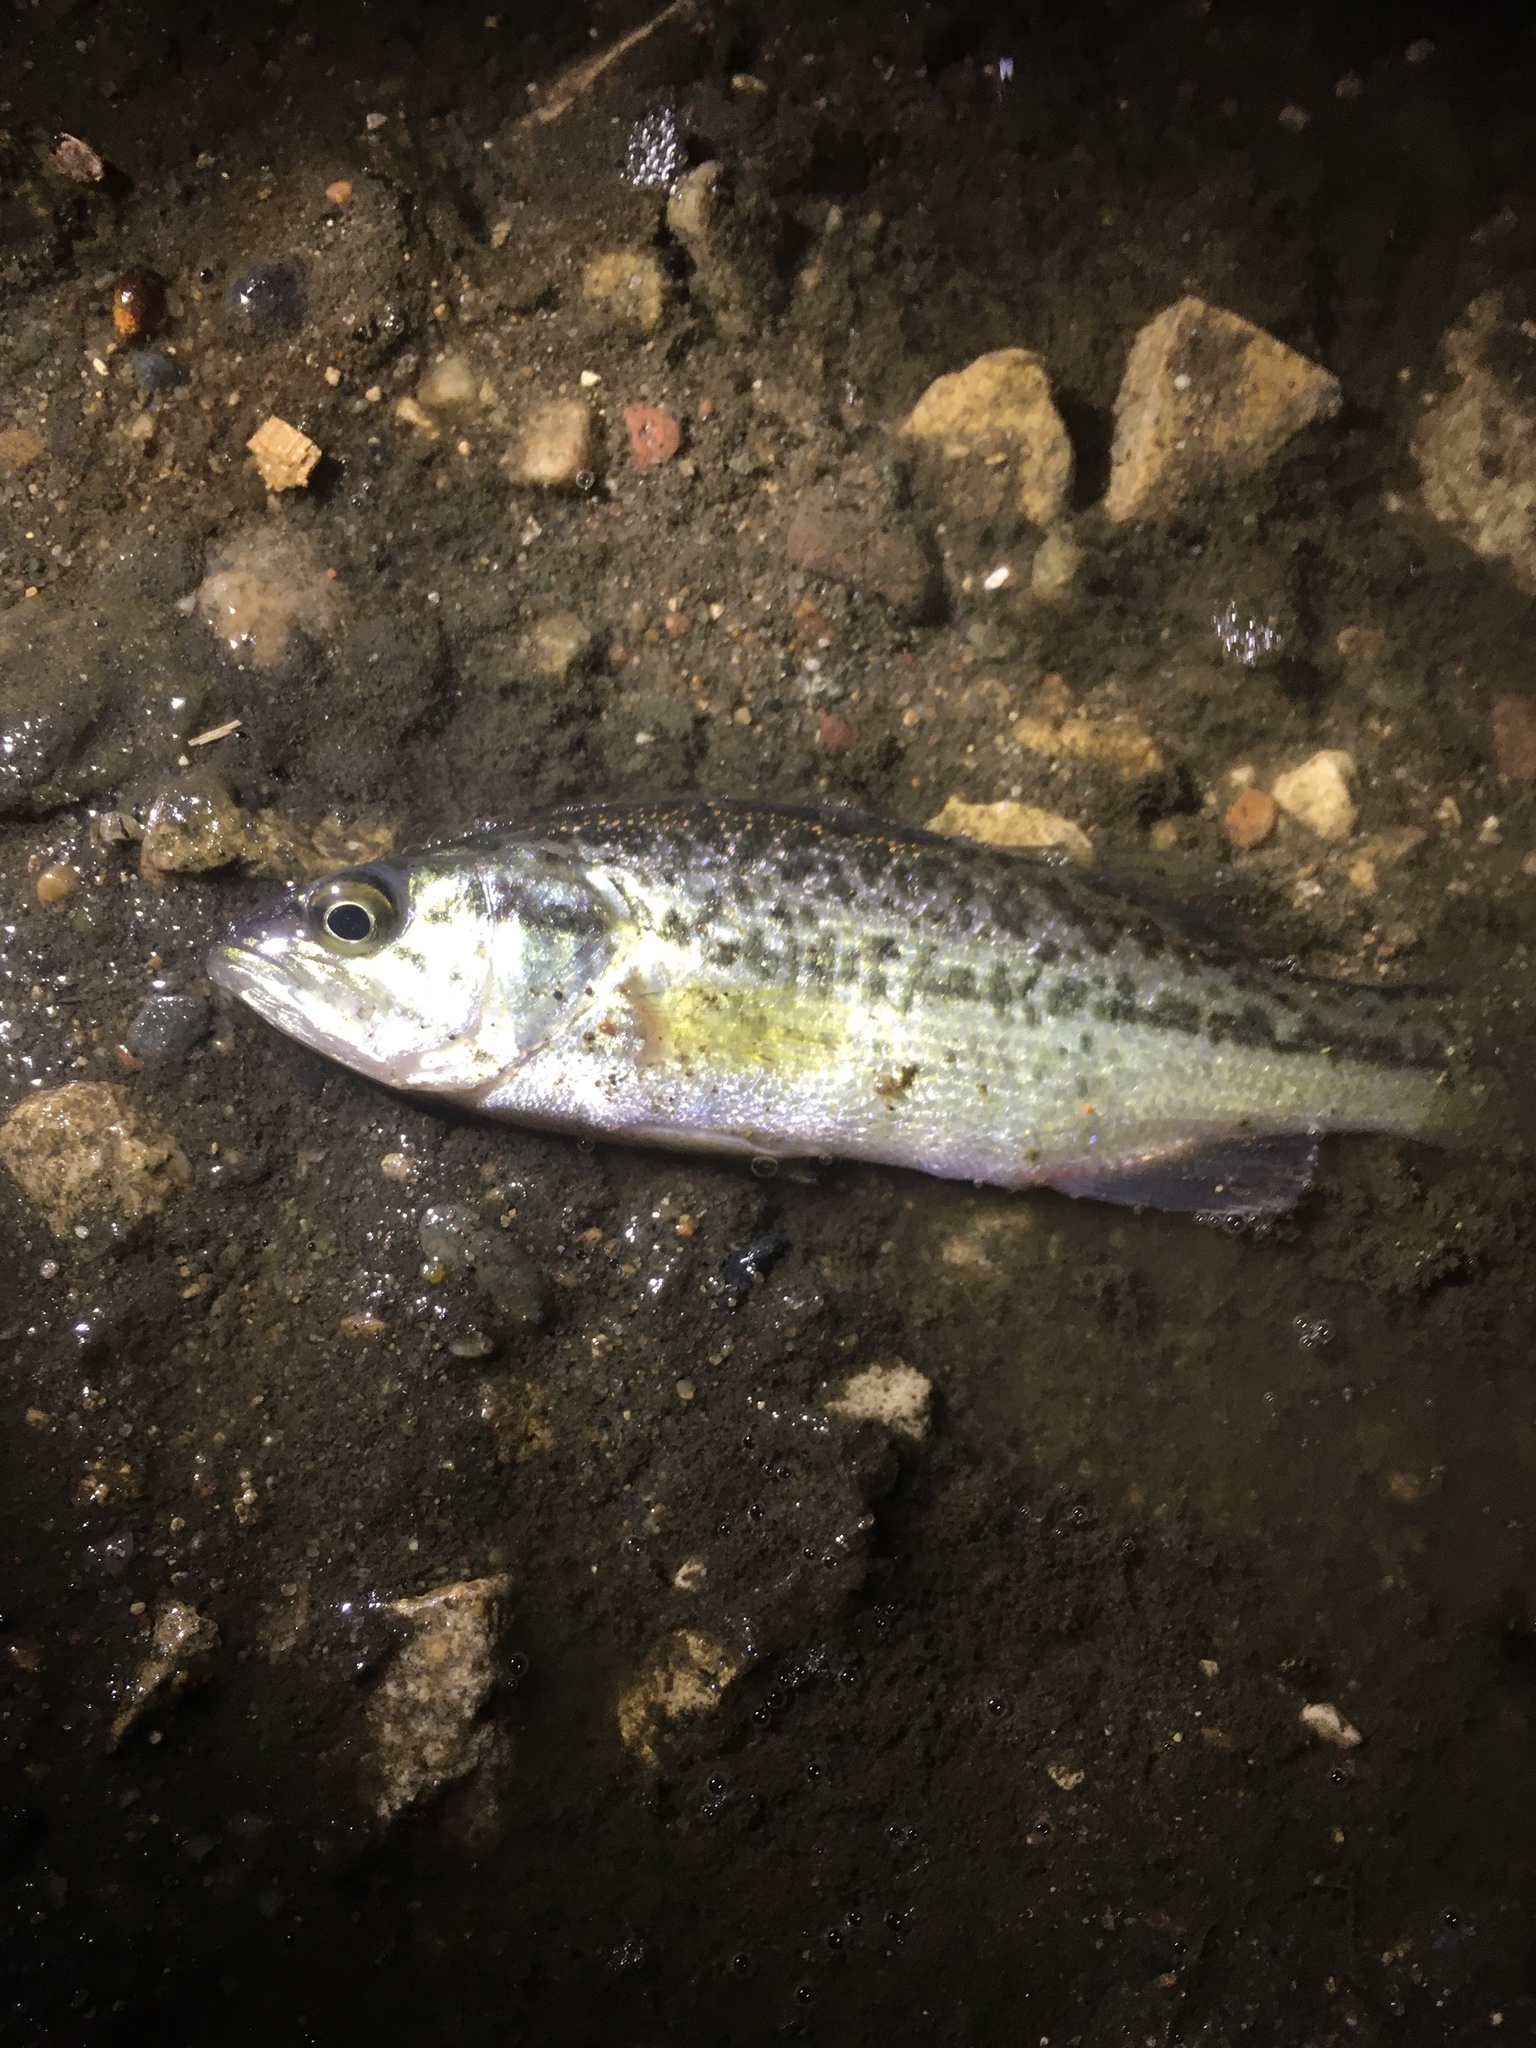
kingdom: Animalia
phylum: Chordata
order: Perciformes
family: Centrarchidae
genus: Micropterus
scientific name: Micropterus
